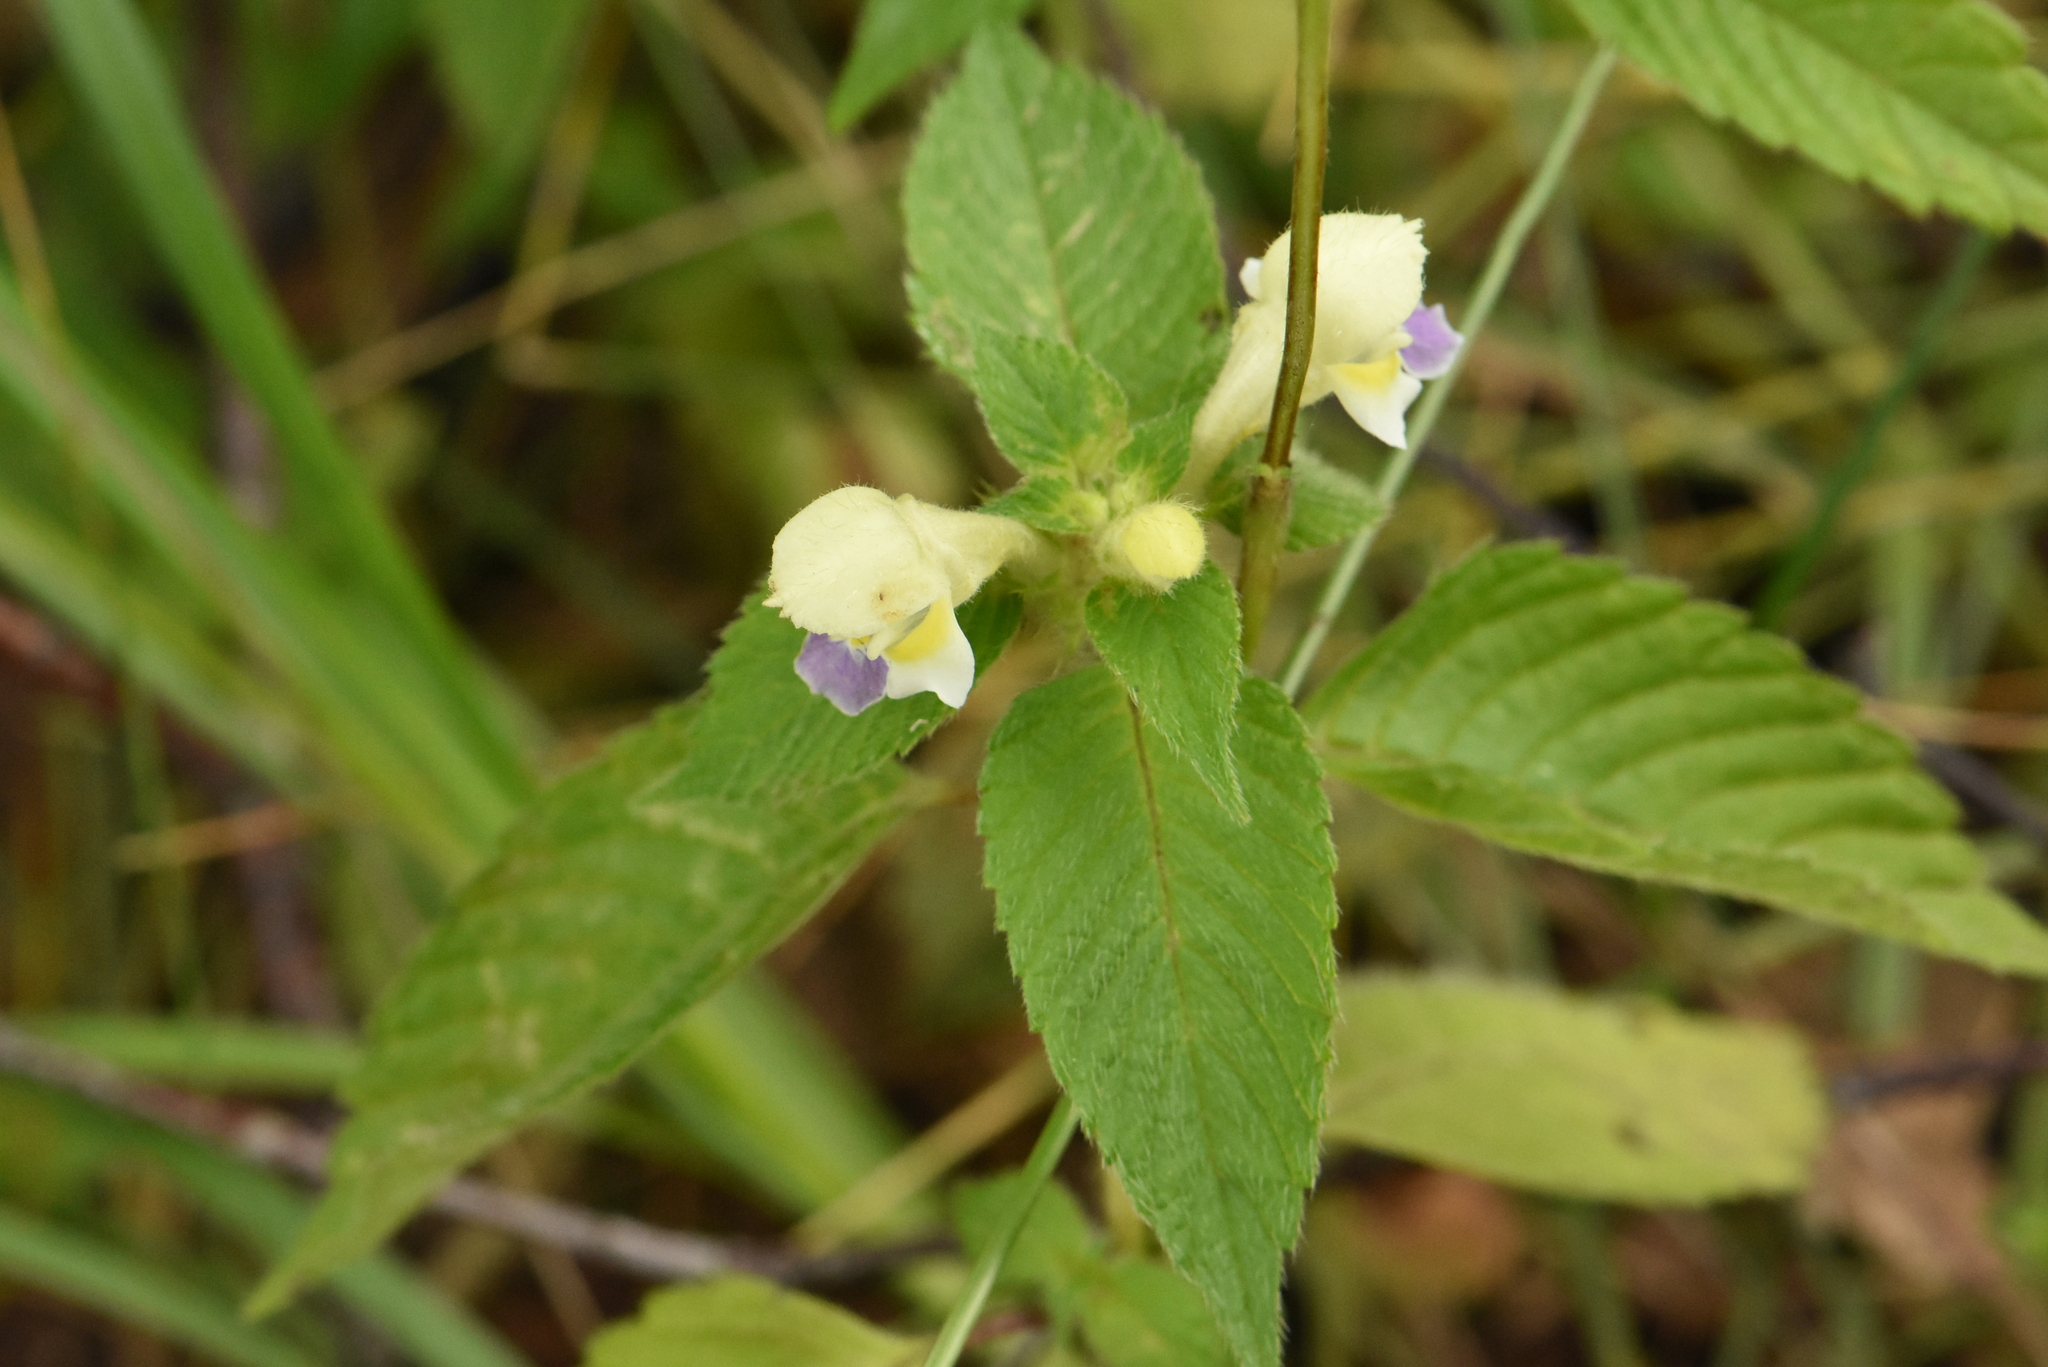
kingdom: Plantae
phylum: Tracheophyta
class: Magnoliopsida
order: Lamiales
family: Lamiaceae
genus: Galeopsis
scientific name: Galeopsis speciosa
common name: Large-flowered hemp-nettle
